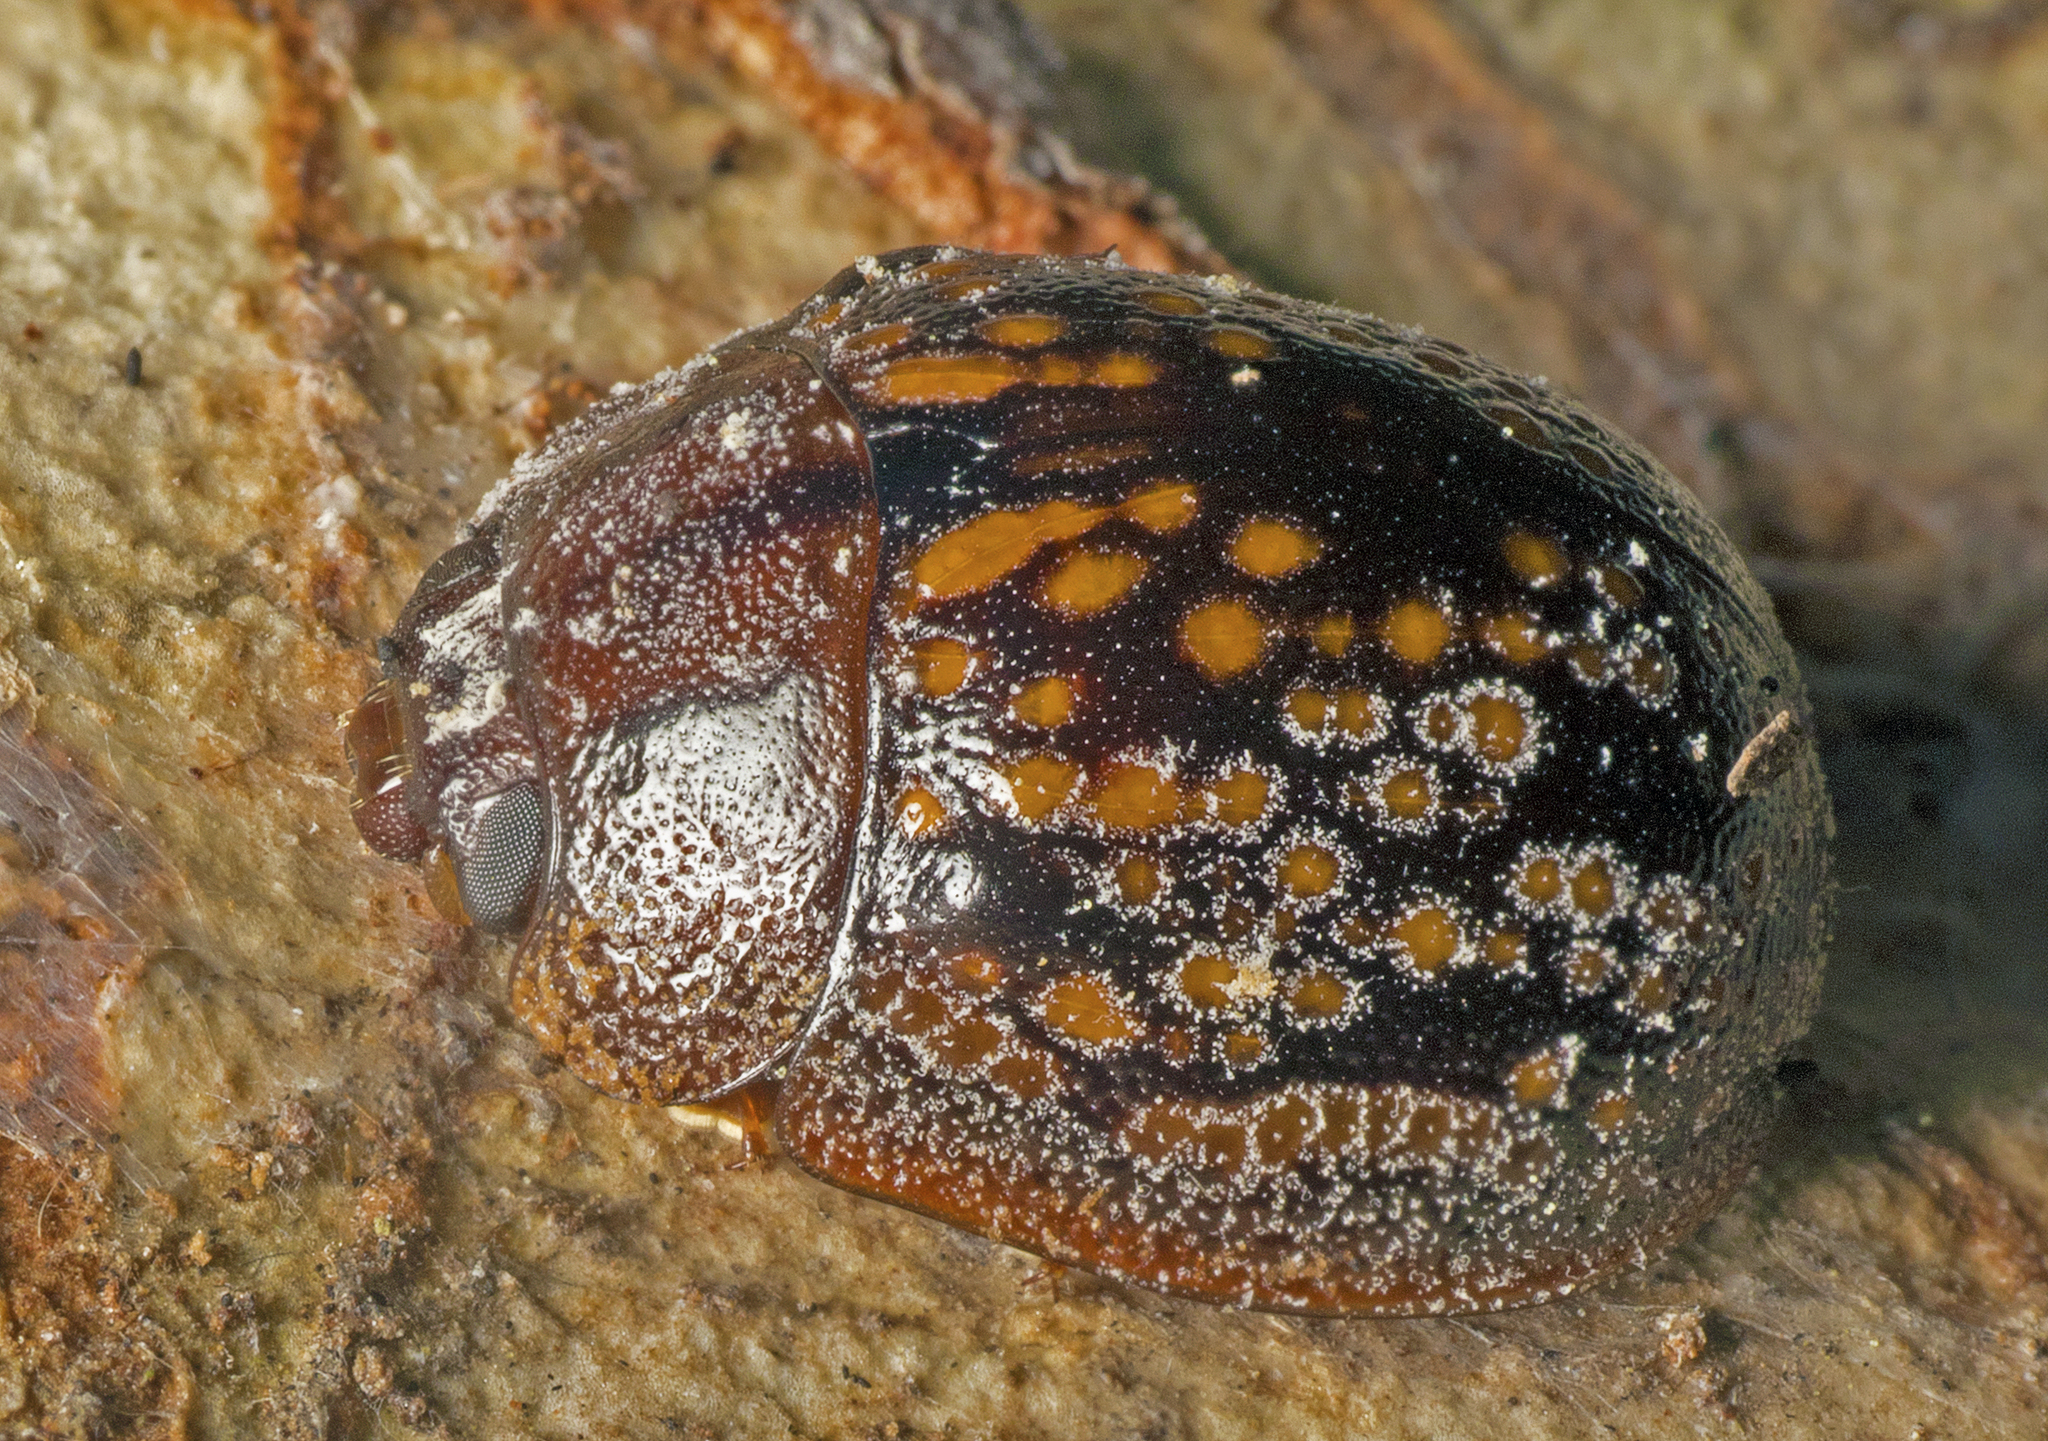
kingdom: Animalia
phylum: Arthropoda
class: Insecta
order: Coleoptera
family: Chrysomelidae
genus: Trachymela
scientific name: Trachymela
